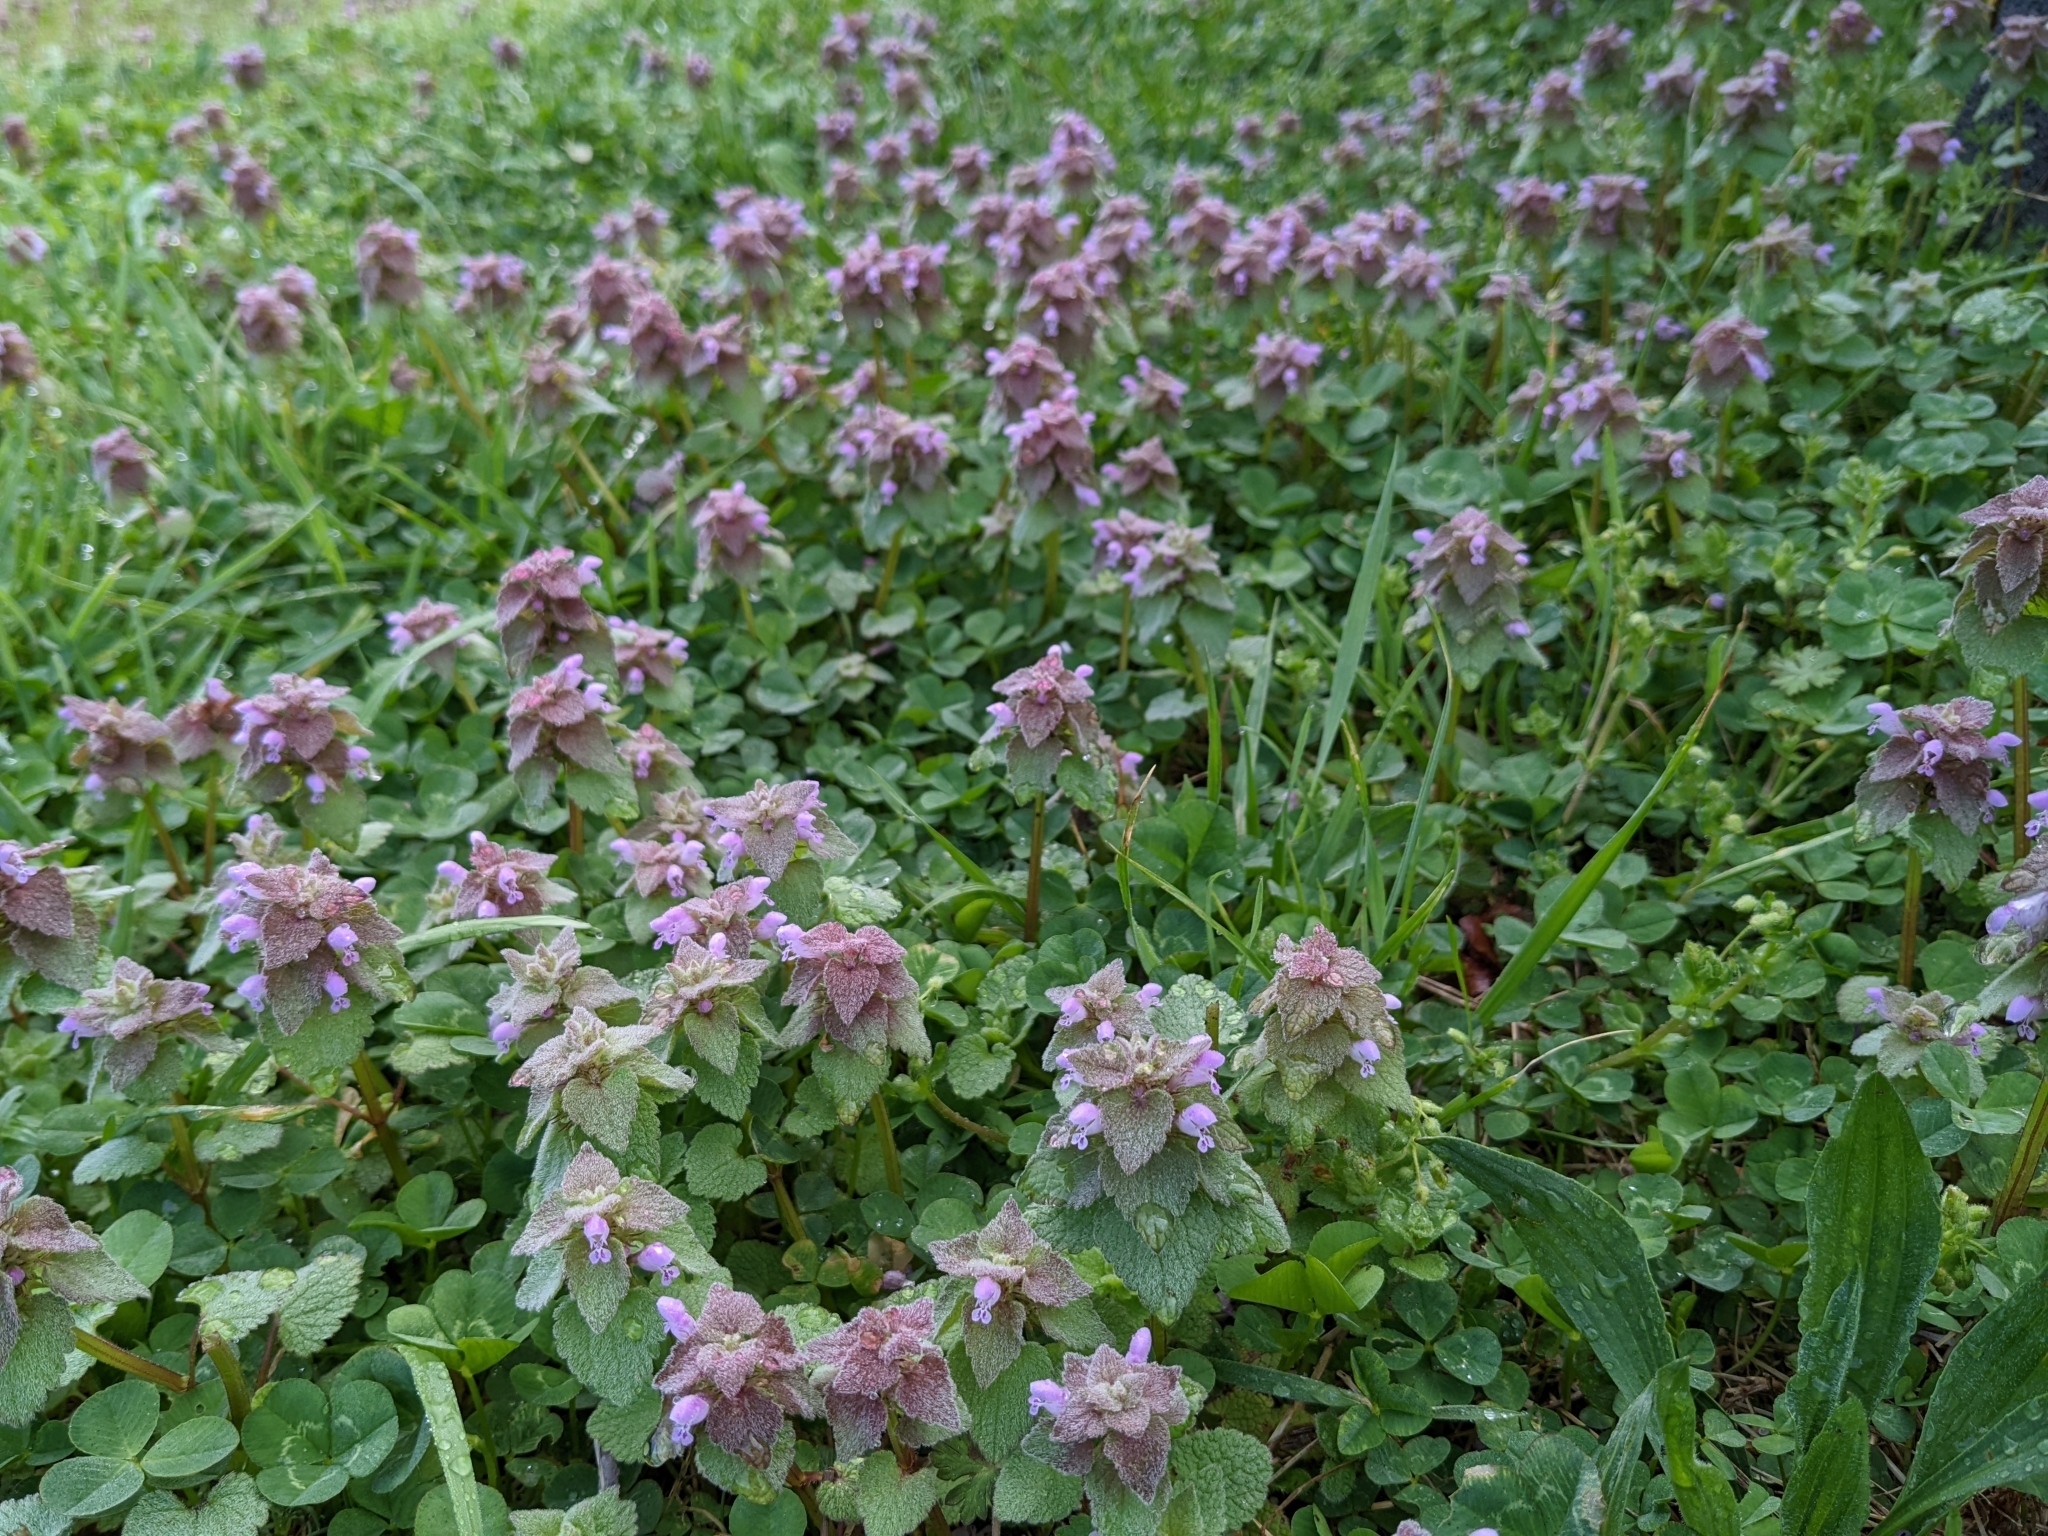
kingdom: Plantae
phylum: Tracheophyta
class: Magnoliopsida
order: Lamiales
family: Lamiaceae
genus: Lamium
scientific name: Lamium purpureum
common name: Red dead-nettle
